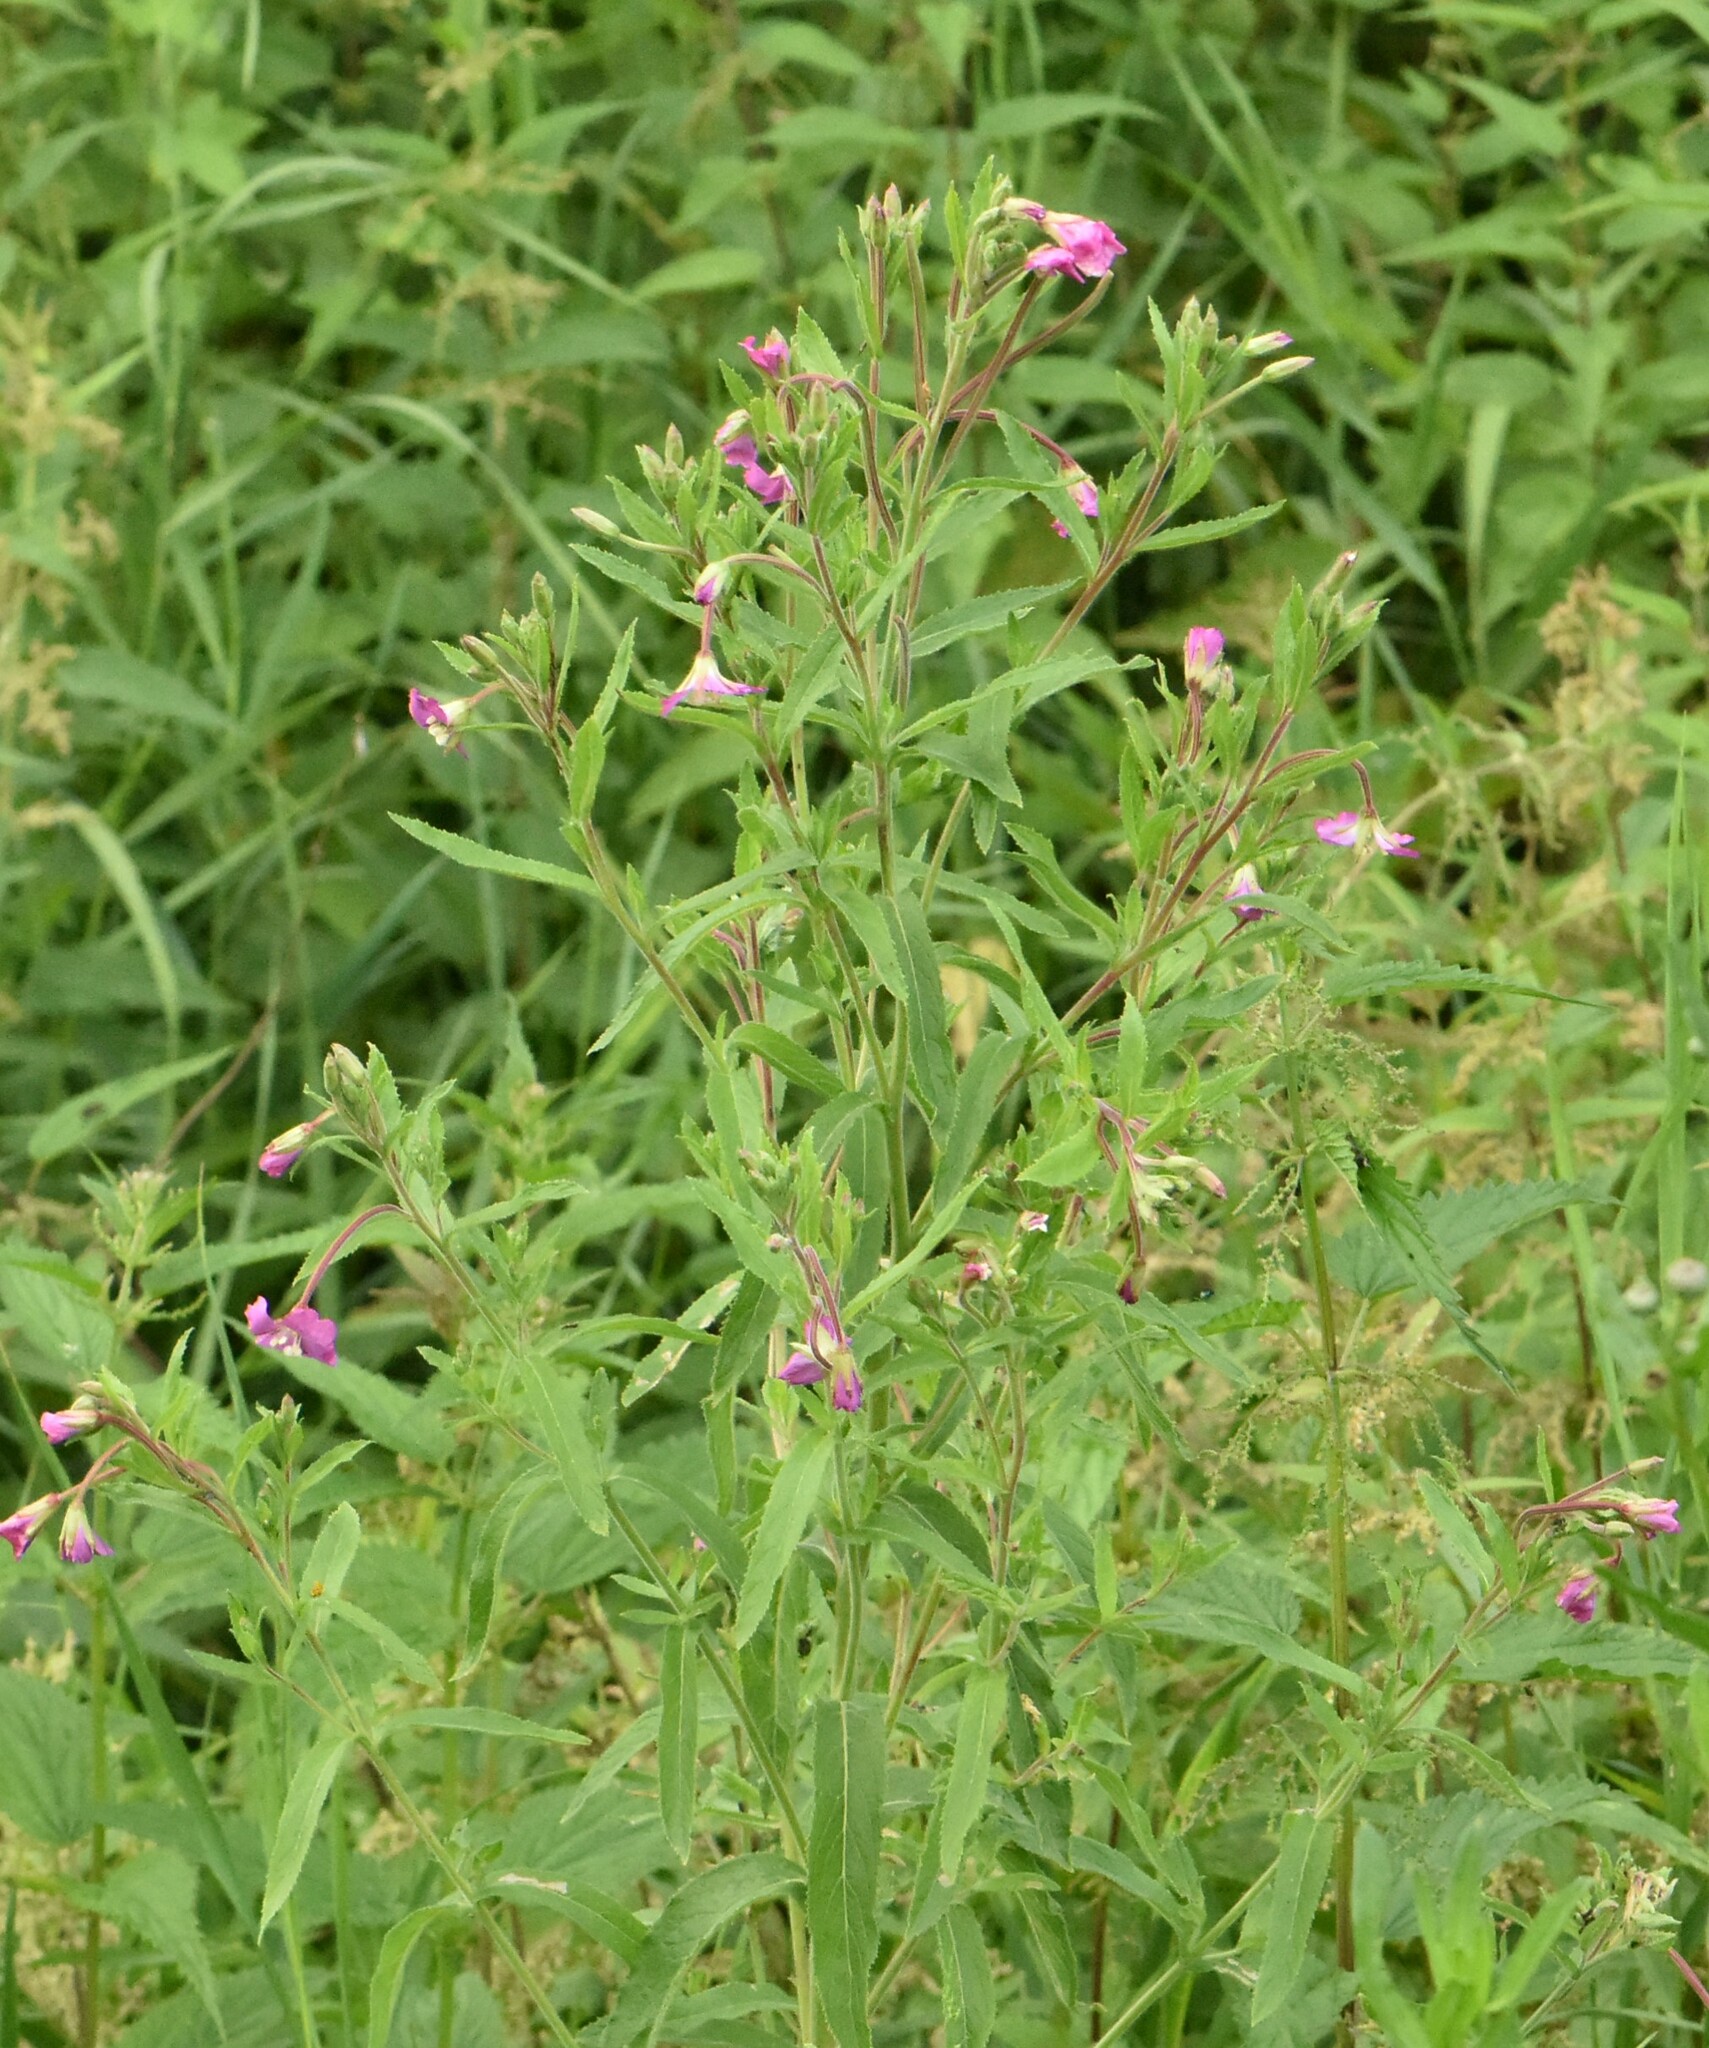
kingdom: Plantae
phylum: Tracheophyta
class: Magnoliopsida
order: Myrtales
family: Onagraceae
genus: Epilobium
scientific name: Epilobium hirsutum
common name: Great willowherb
